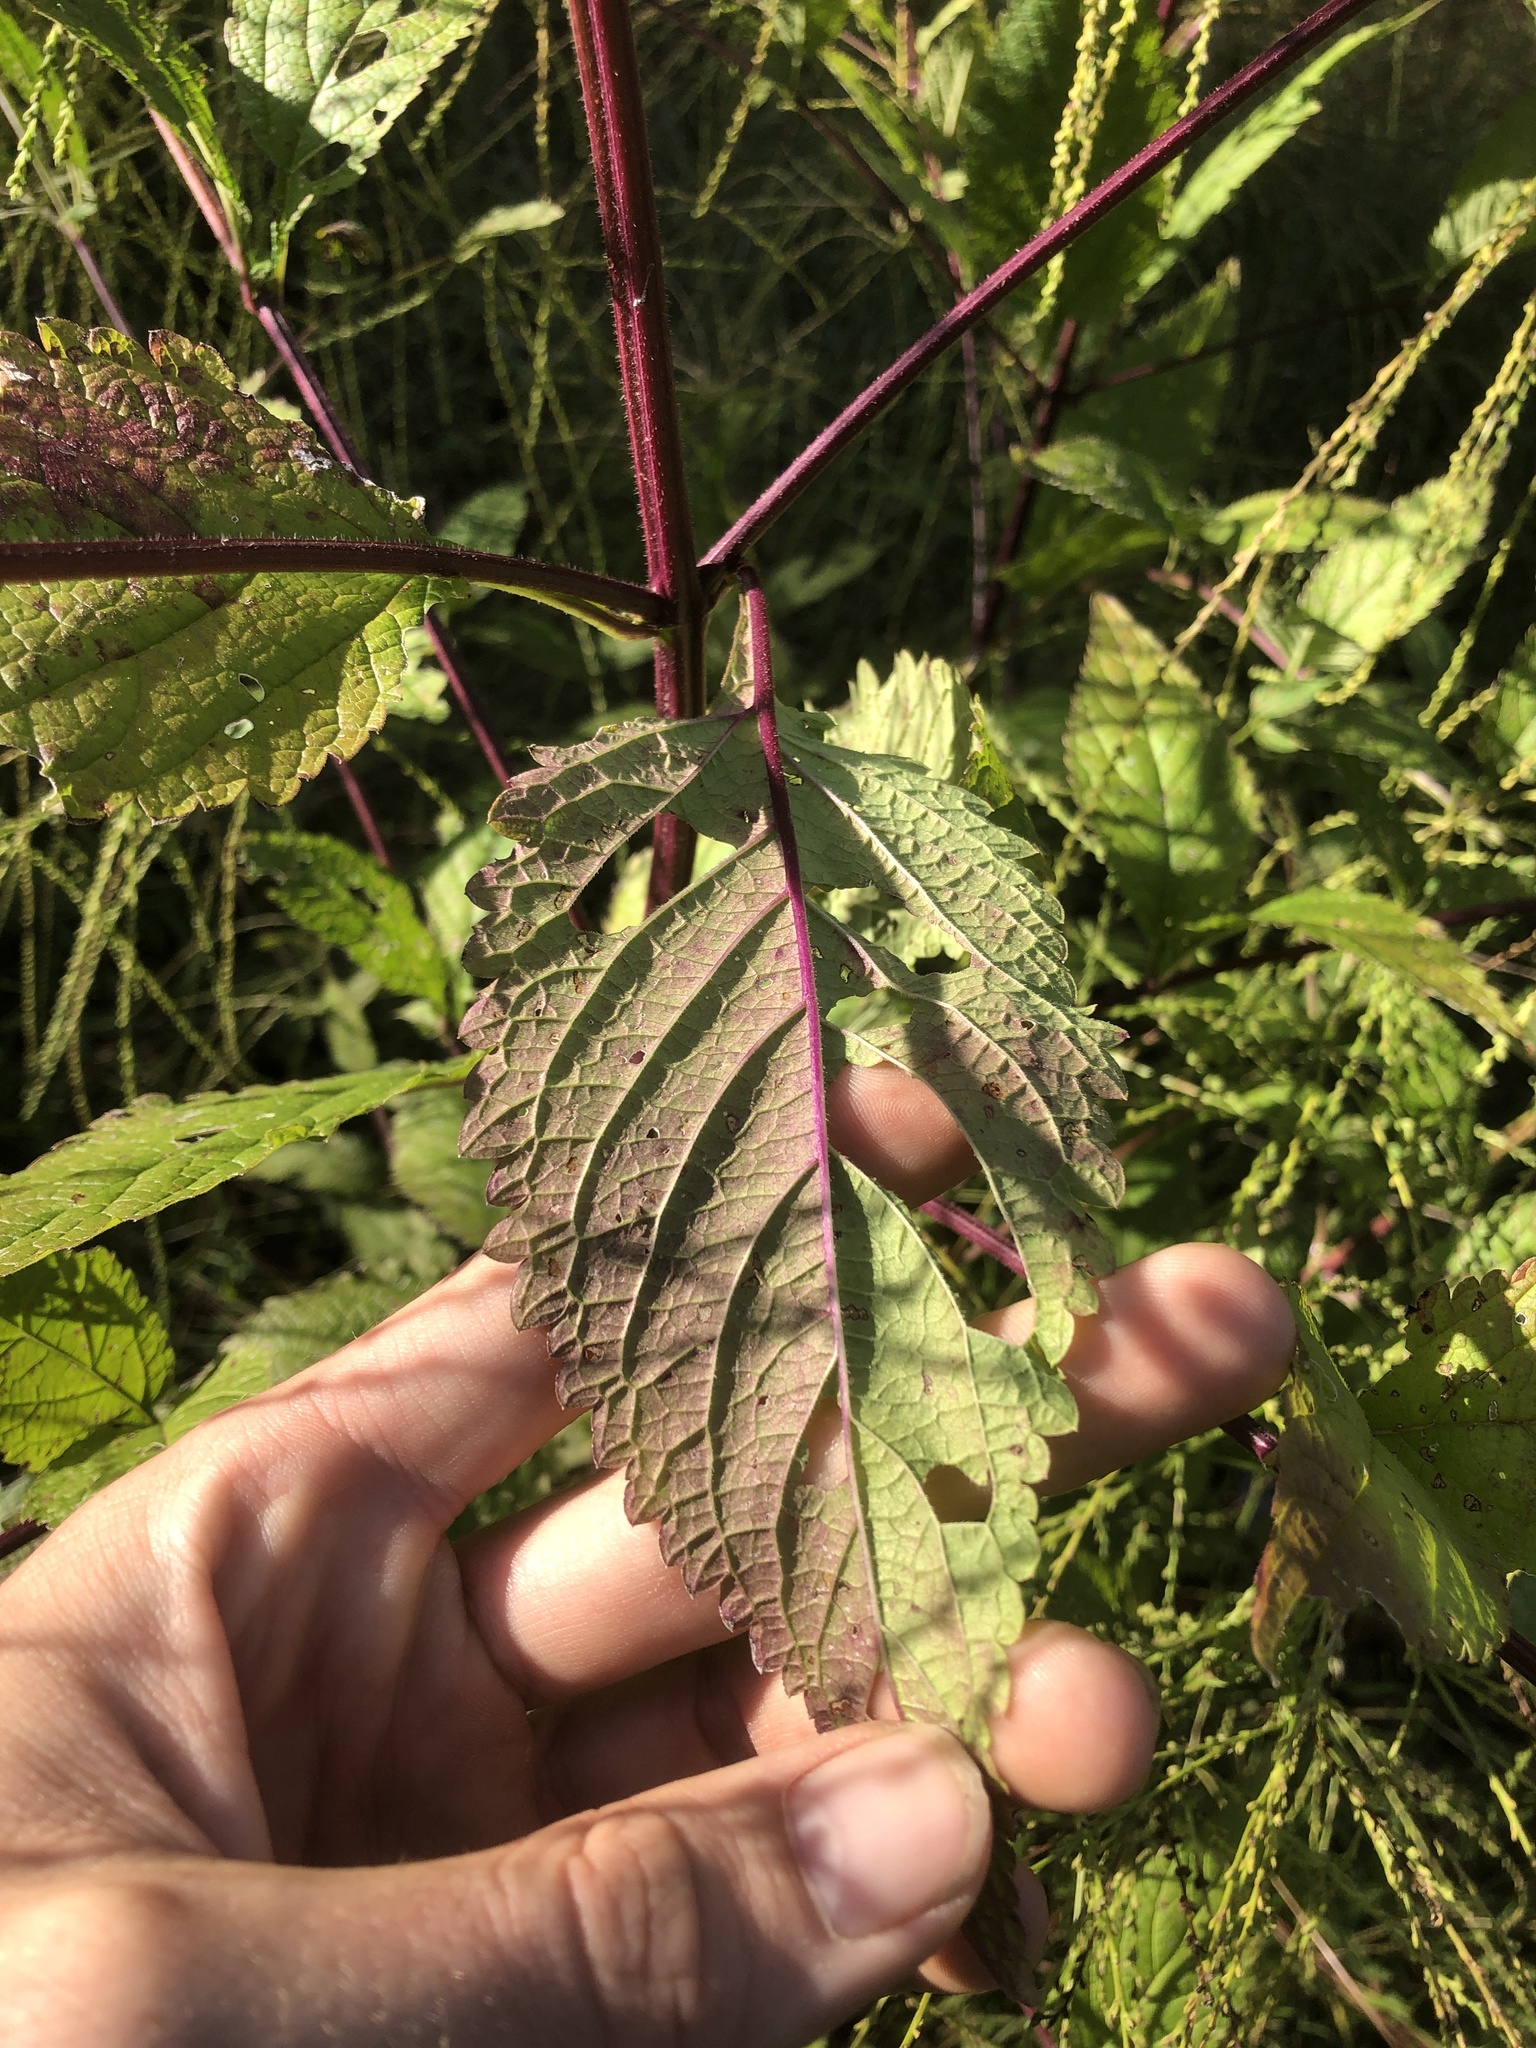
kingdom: Plantae
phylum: Tracheophyta
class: Magnoliopsida
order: Lamiales
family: Verbenaceae
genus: Verbena
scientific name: Verbena urticifolia
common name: Nettle-leaved vervain
